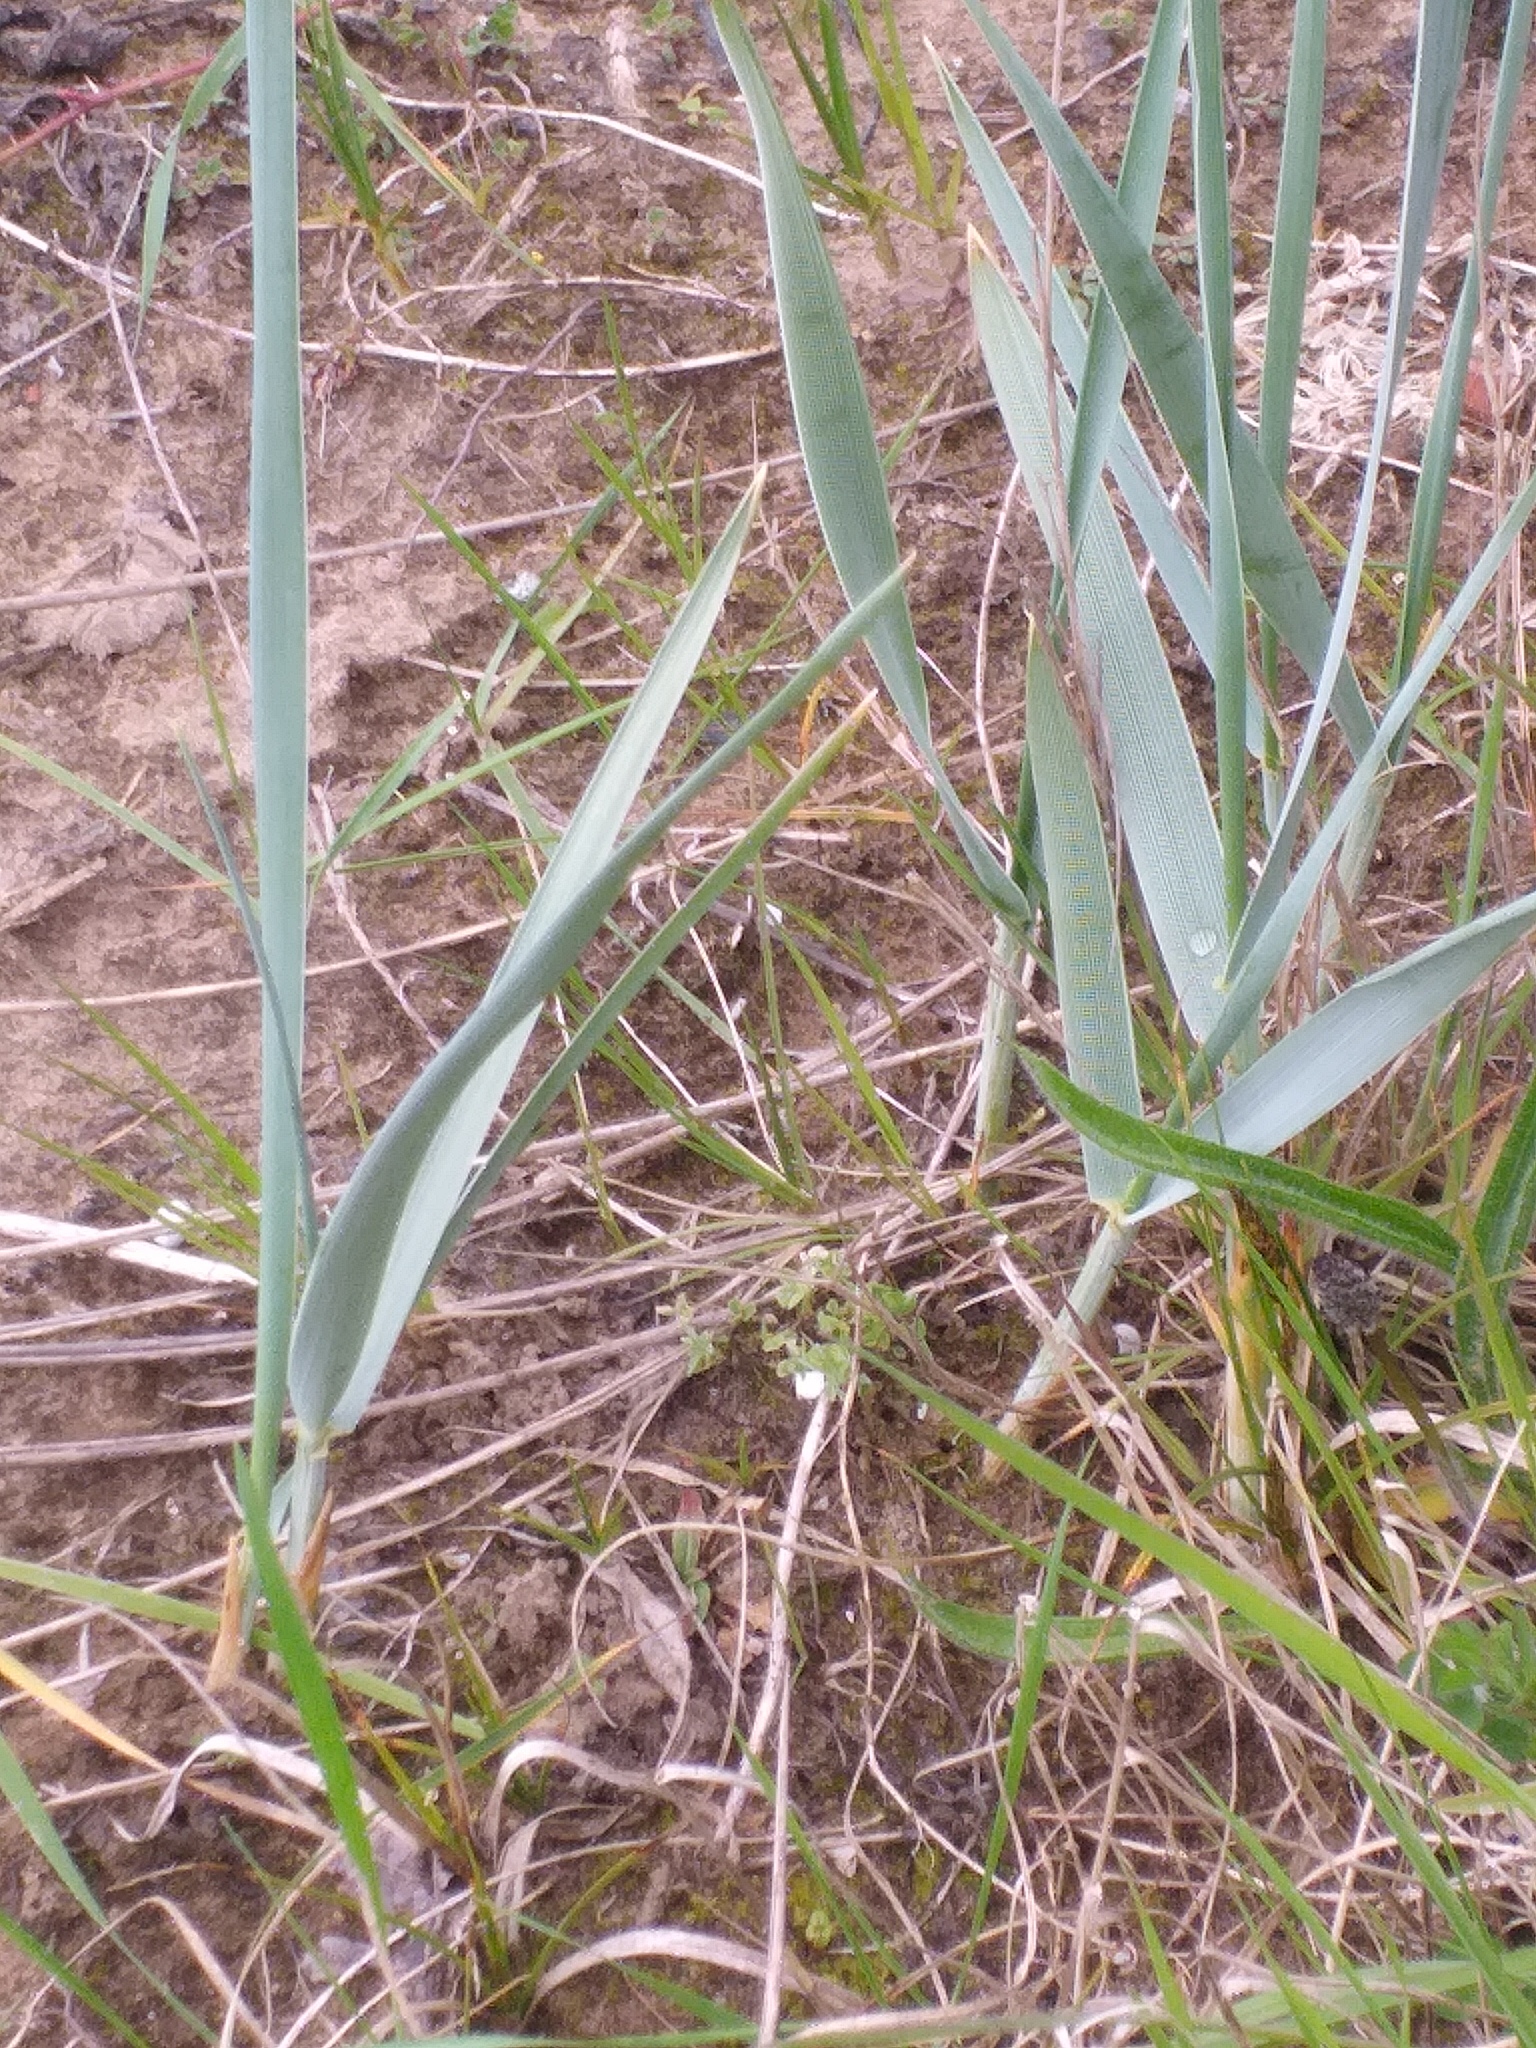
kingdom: Plantae
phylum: Tracheophyta
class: Liliopsida
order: Poales
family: Poaceae
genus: Leymus
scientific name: Leymus arenarius
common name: Lyme-grass
